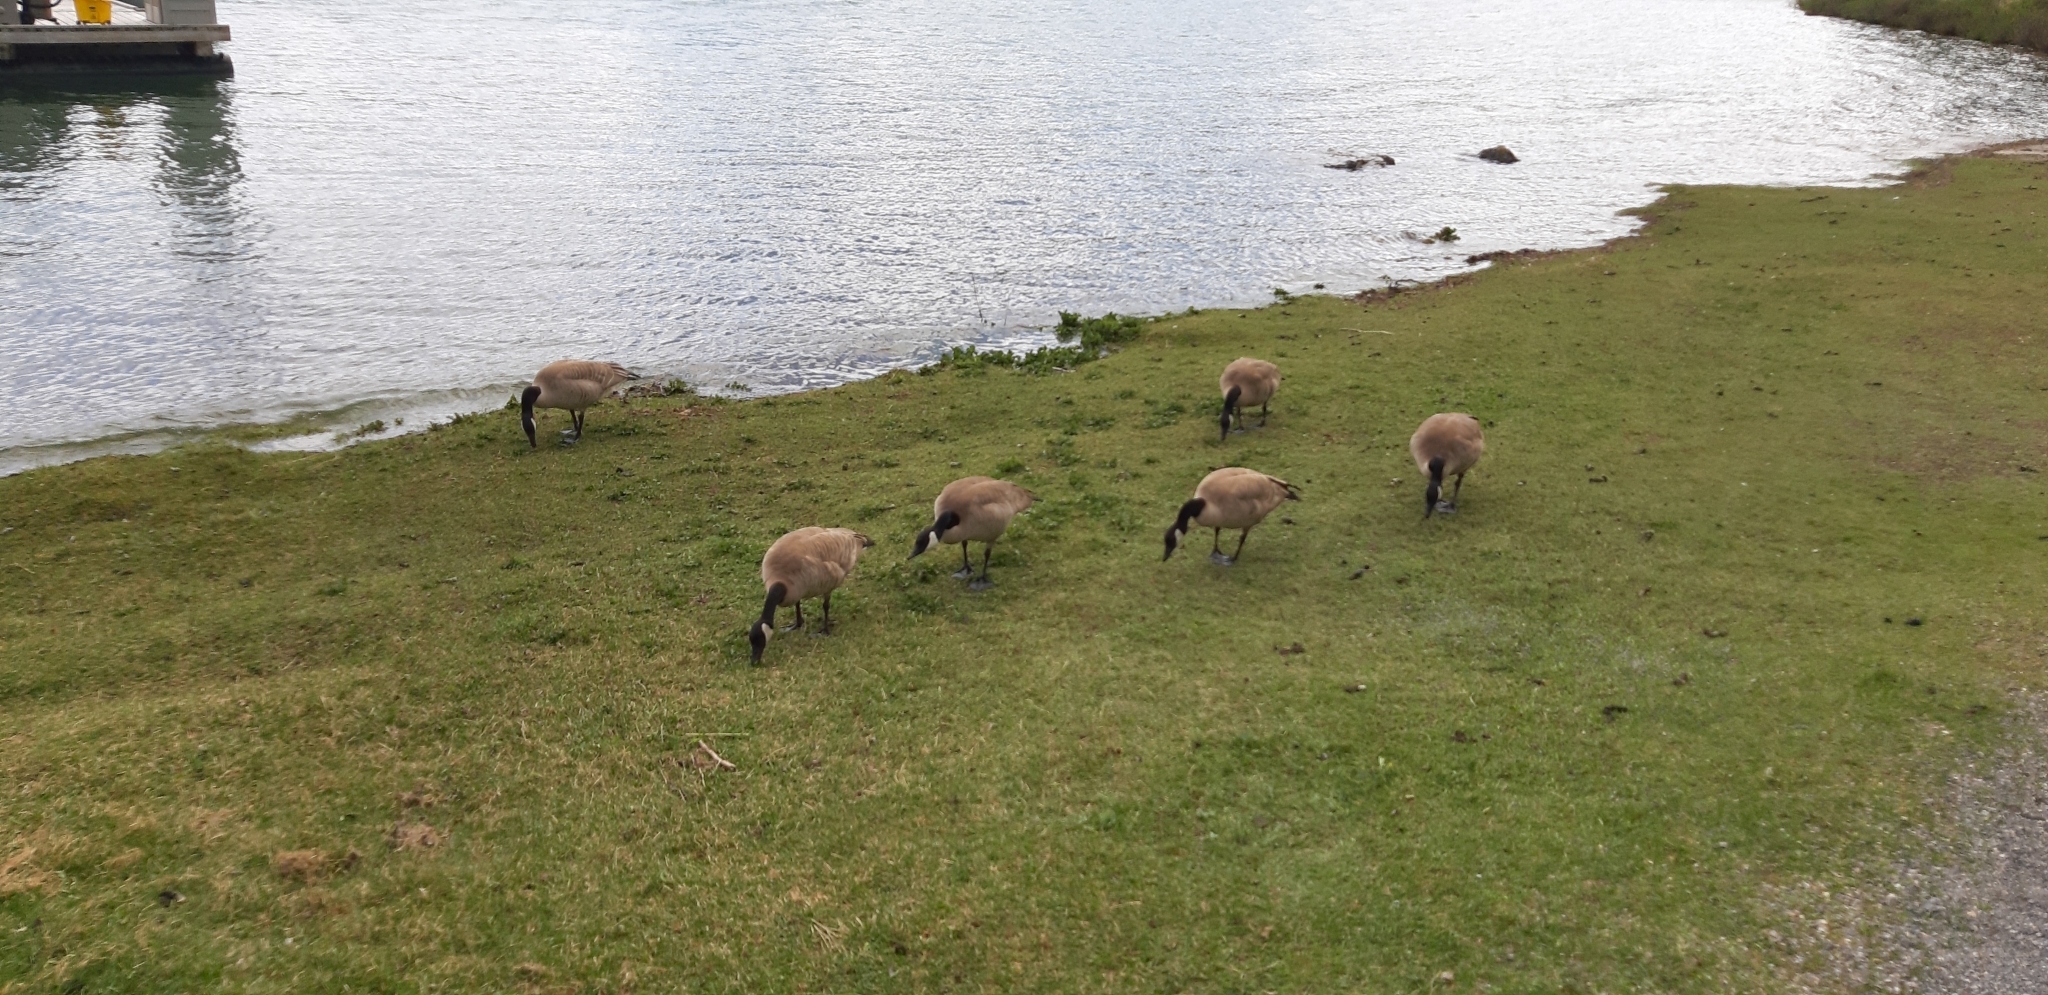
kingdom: Animalia
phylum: Chordata
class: Aves
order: Anseriformes
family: Anatidae
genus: Branta
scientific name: Branta canadensis
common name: Canada goose
